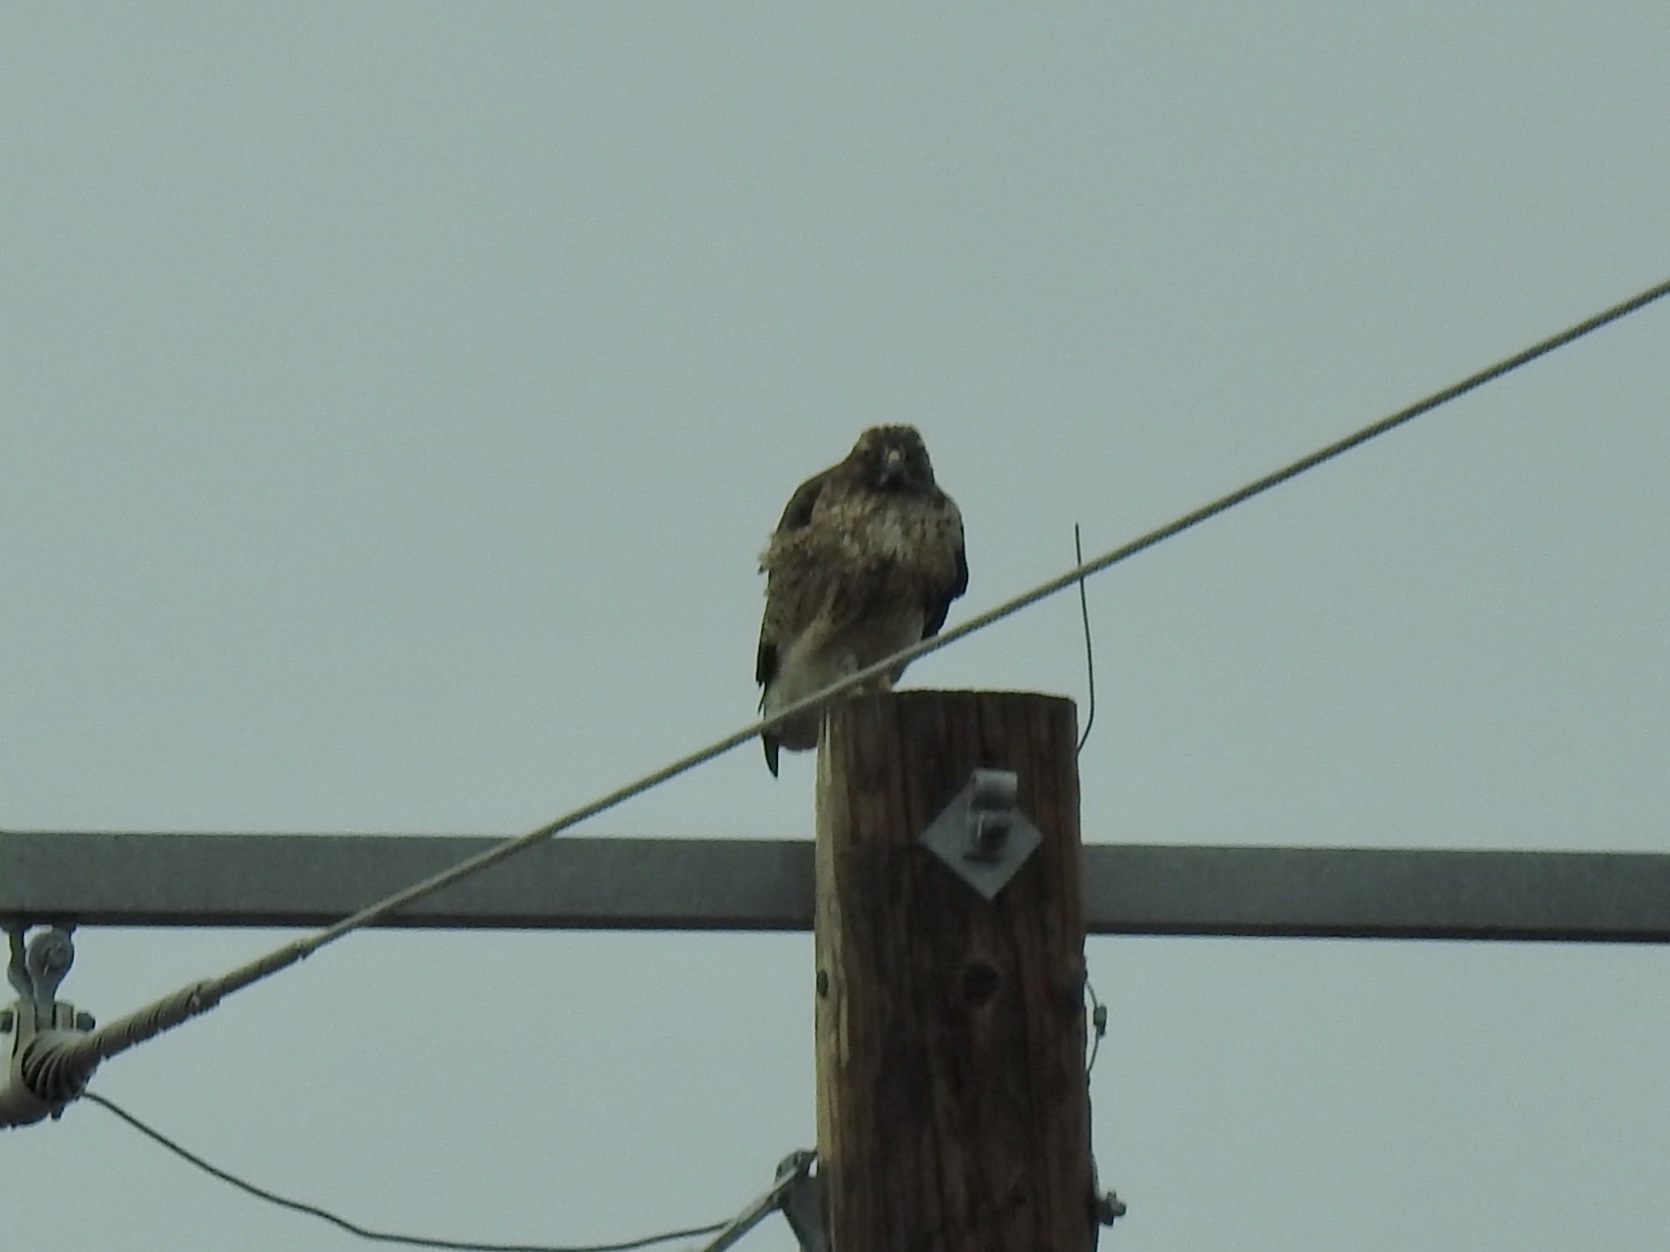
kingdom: Animalia
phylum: Chordata
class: Aves
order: Accipitriformes
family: Accipitridae
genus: Buteo
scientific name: Buteo jamaicensis
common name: Red-tailed hawk
